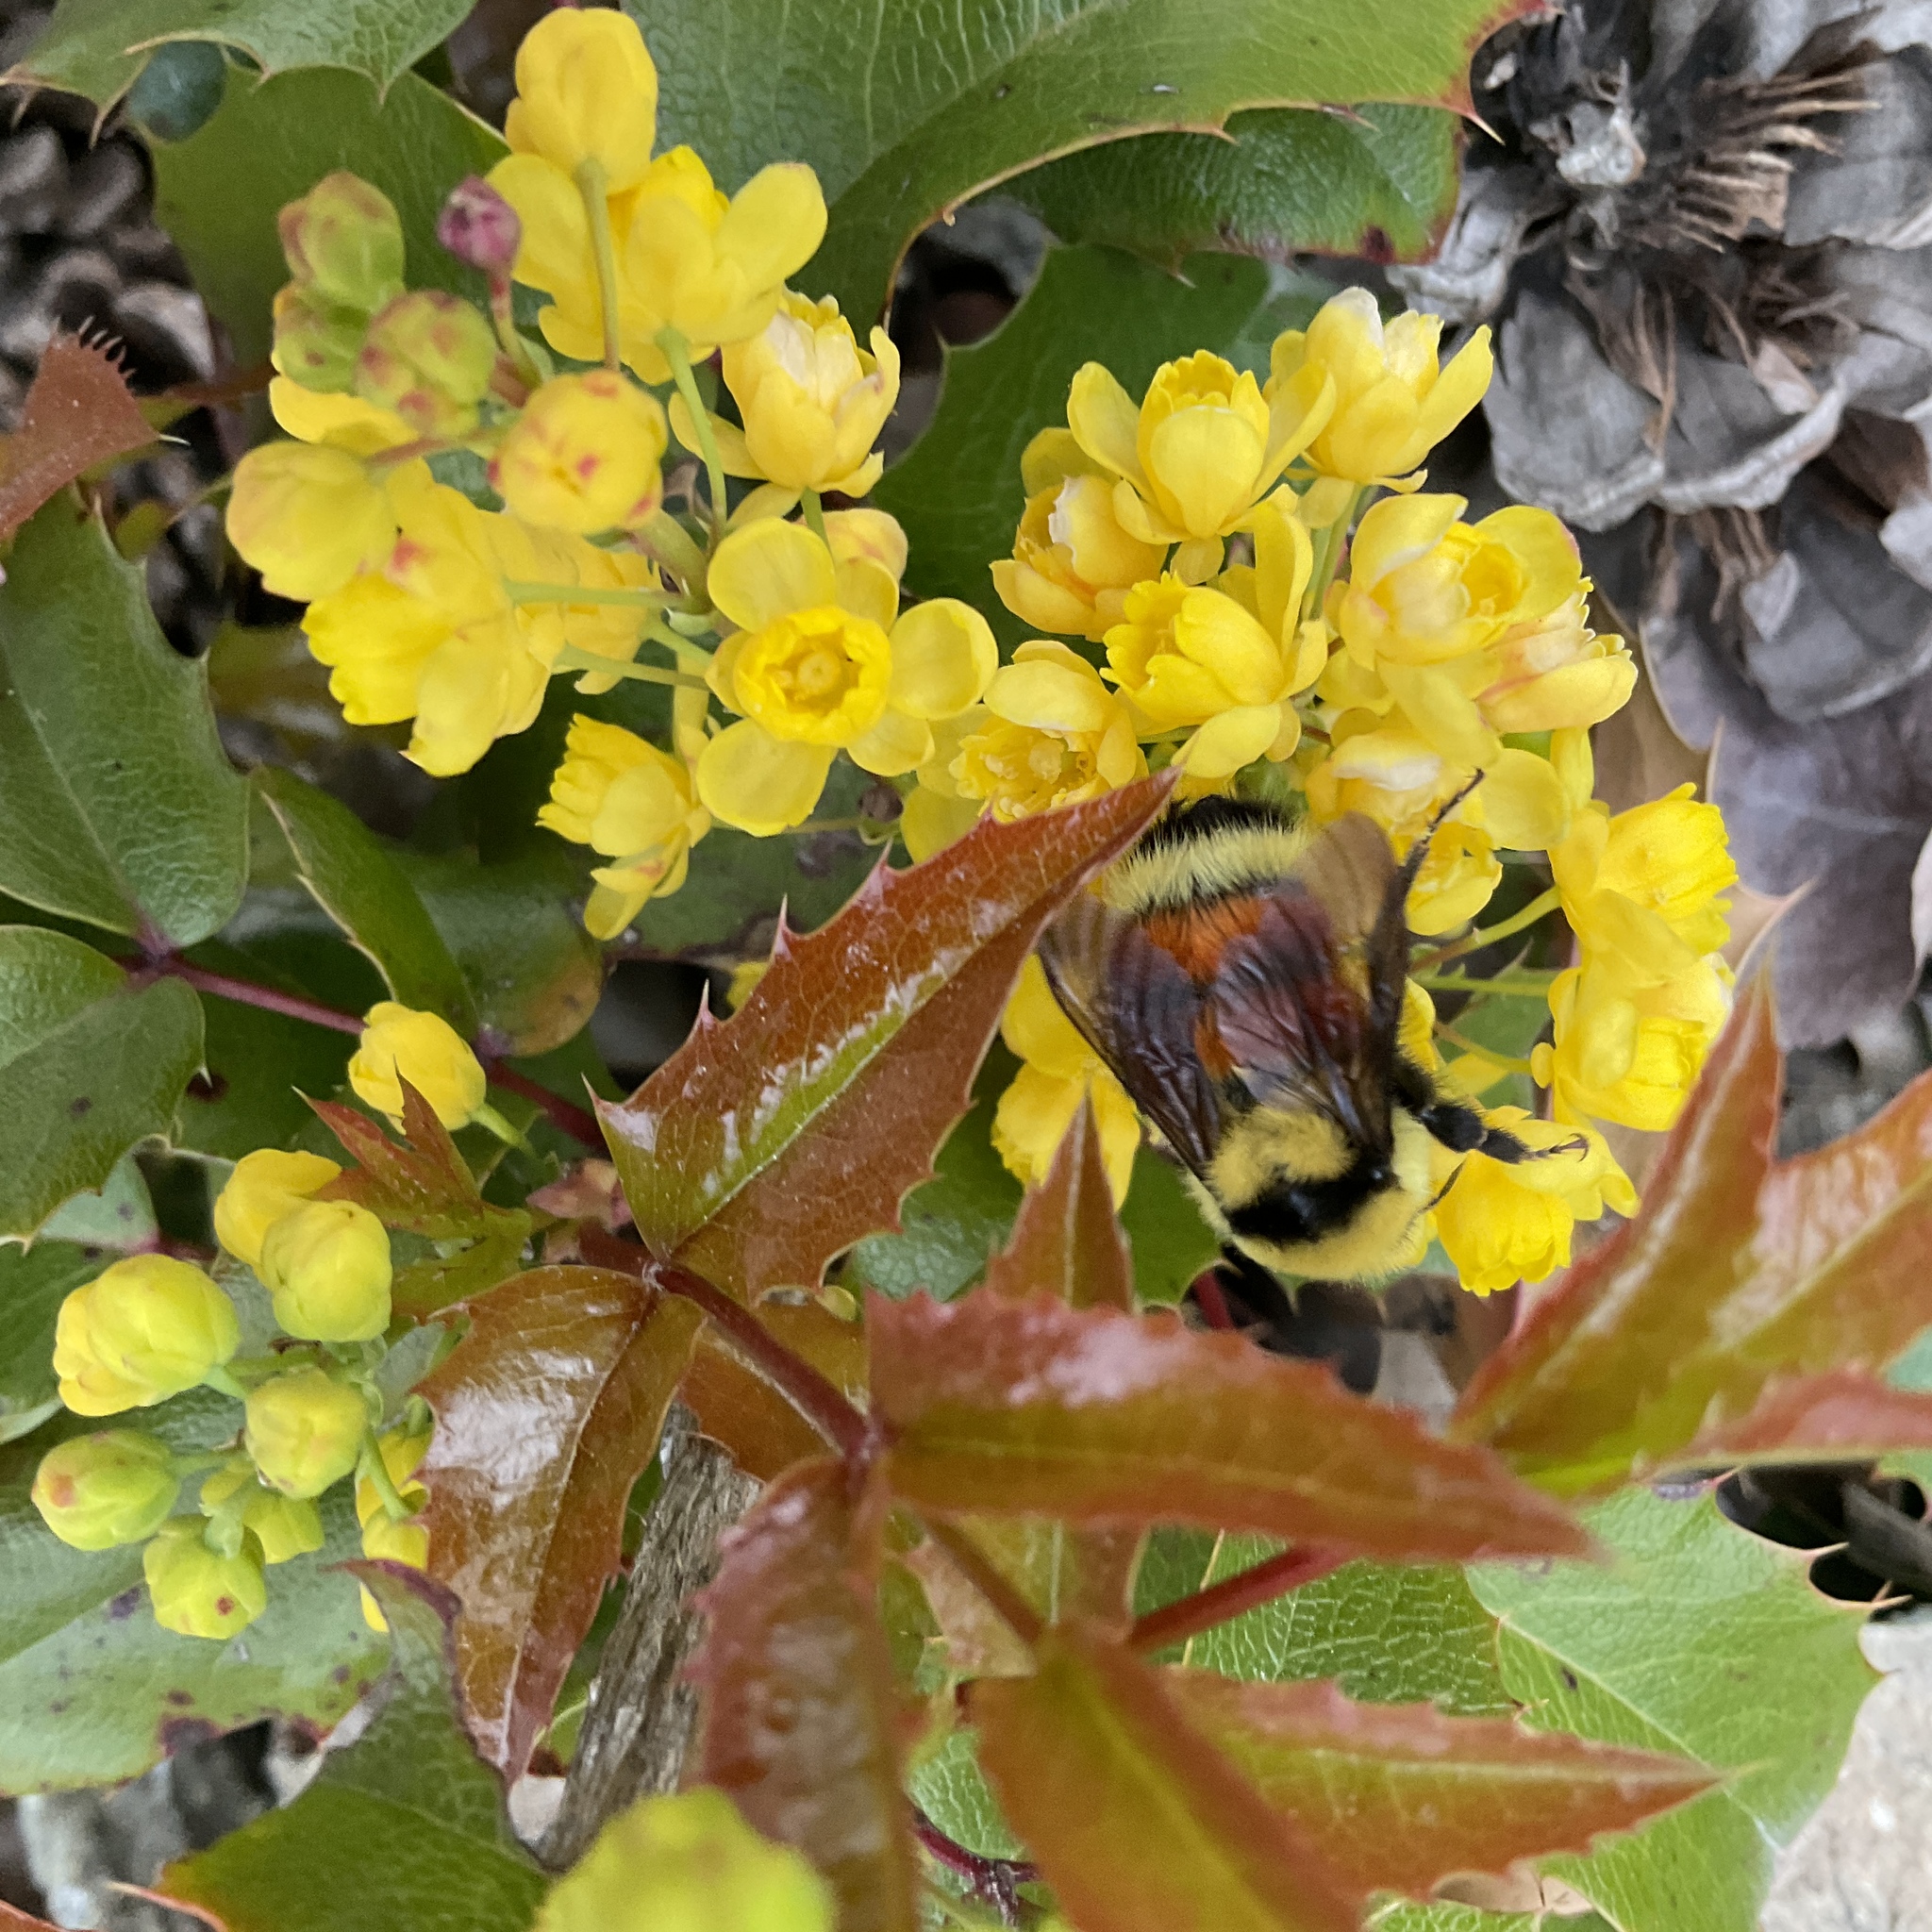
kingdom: Animalia
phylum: Arthropoda
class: Insecta
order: Hymenoptera
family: Apidae
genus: Bombus
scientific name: Bombus huntii
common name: Hunt bumble bee
